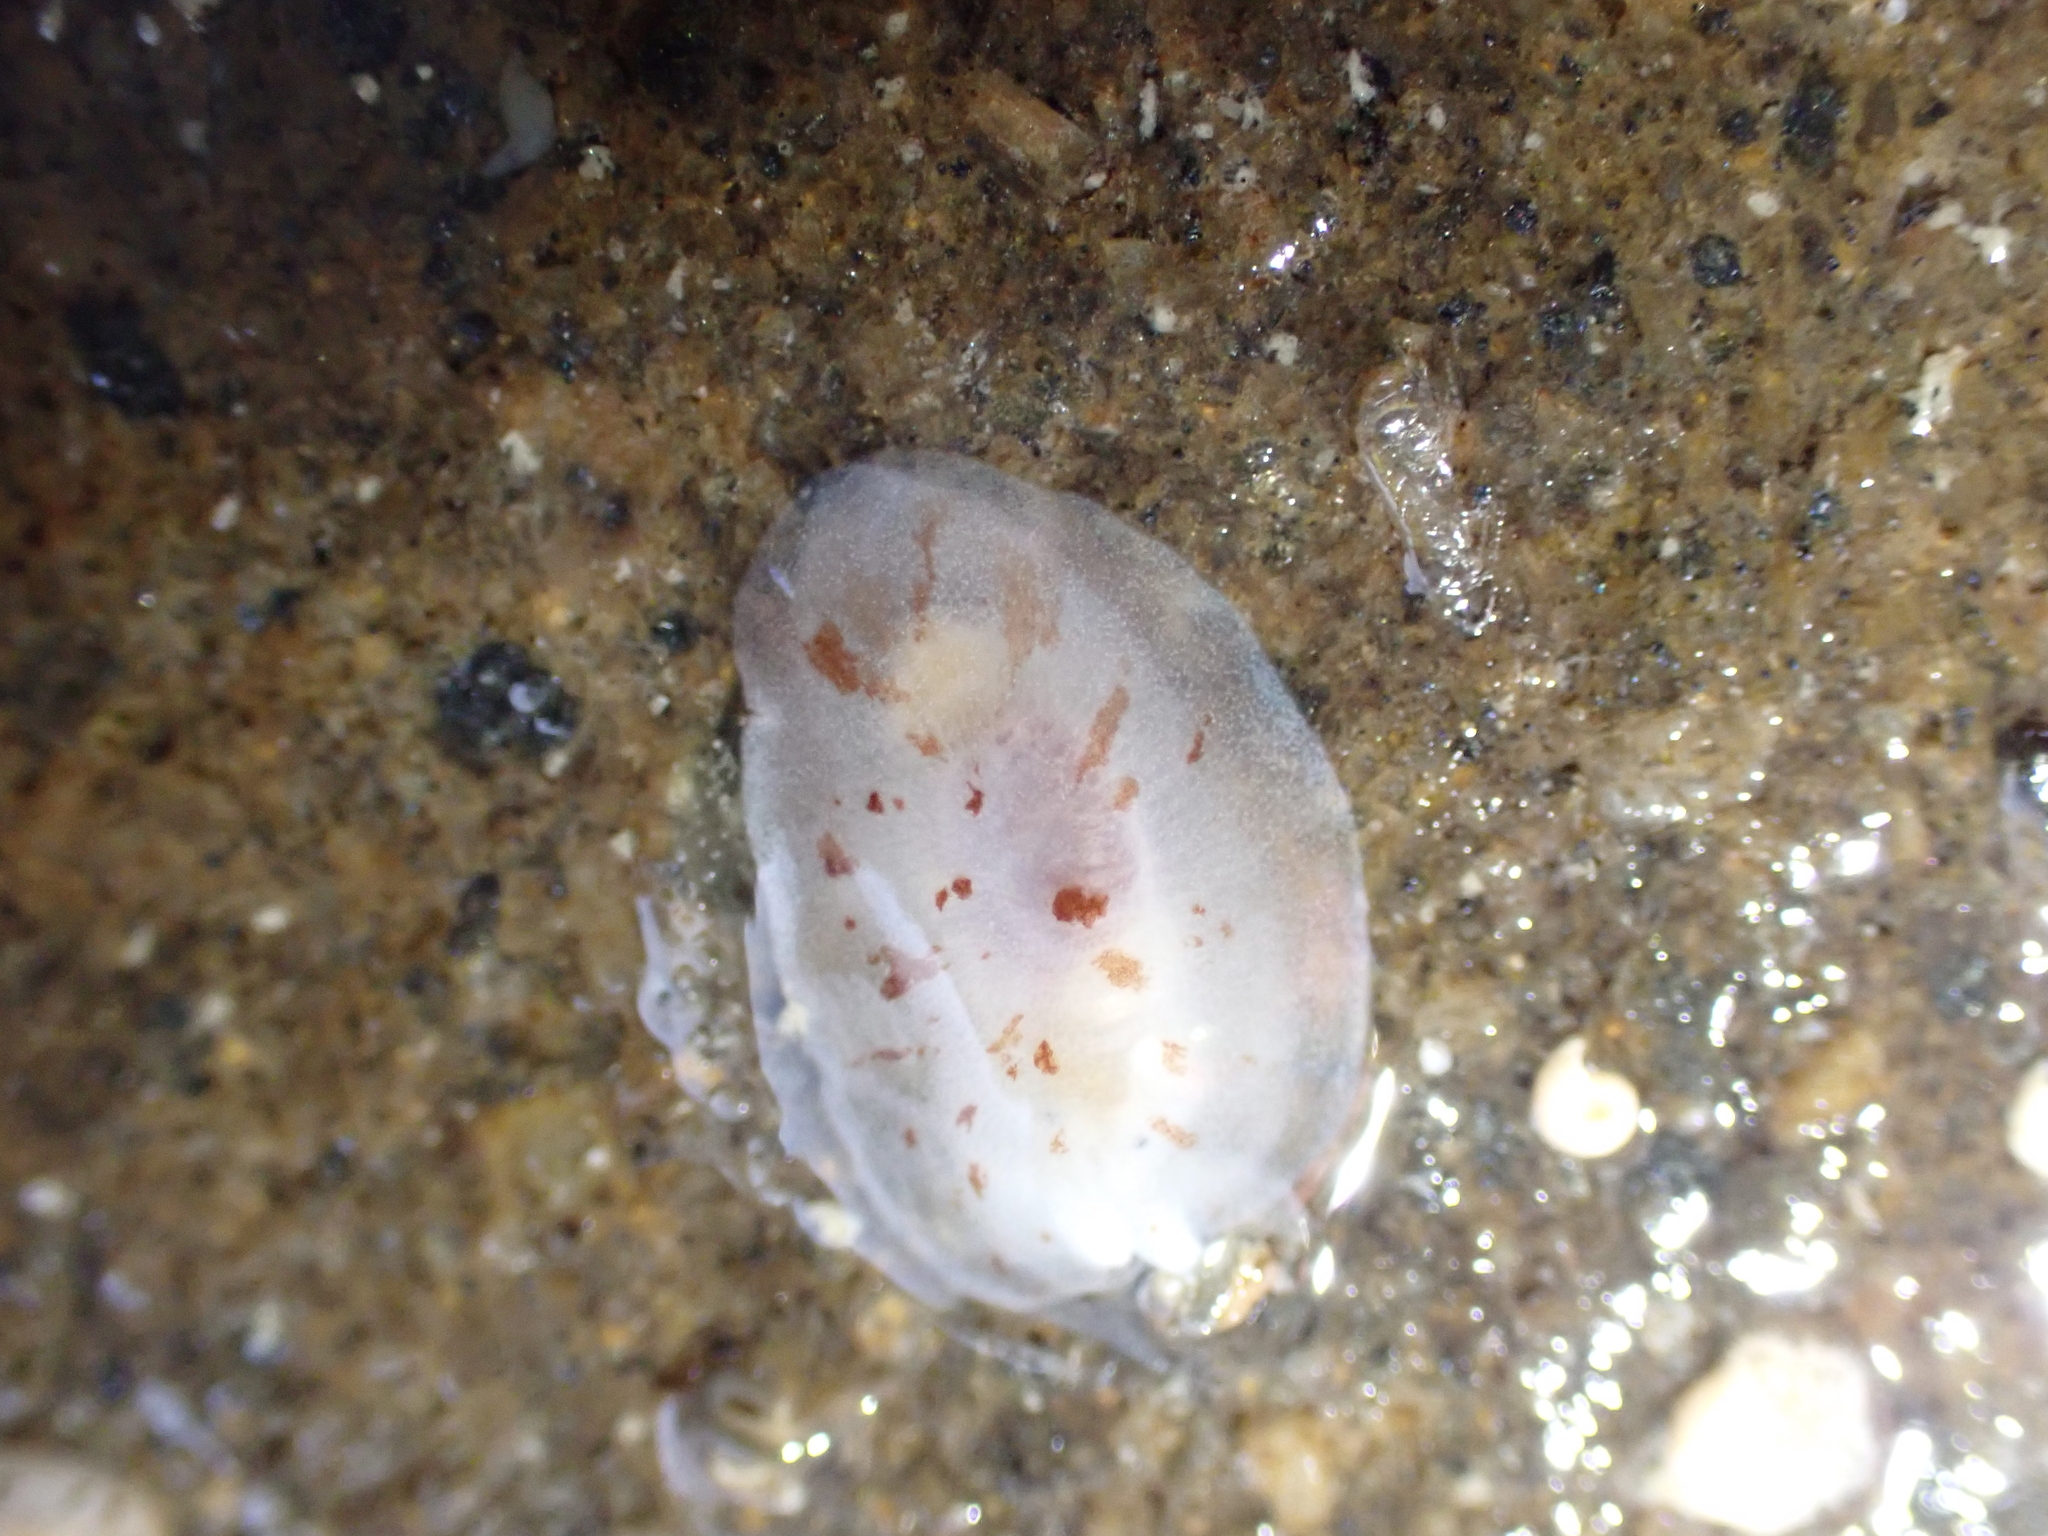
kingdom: Animalia
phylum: Mollusca
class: Gastropoda
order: Pleurobranchida
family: Pleurobranchidae
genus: Berthella
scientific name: Berthella ornata
